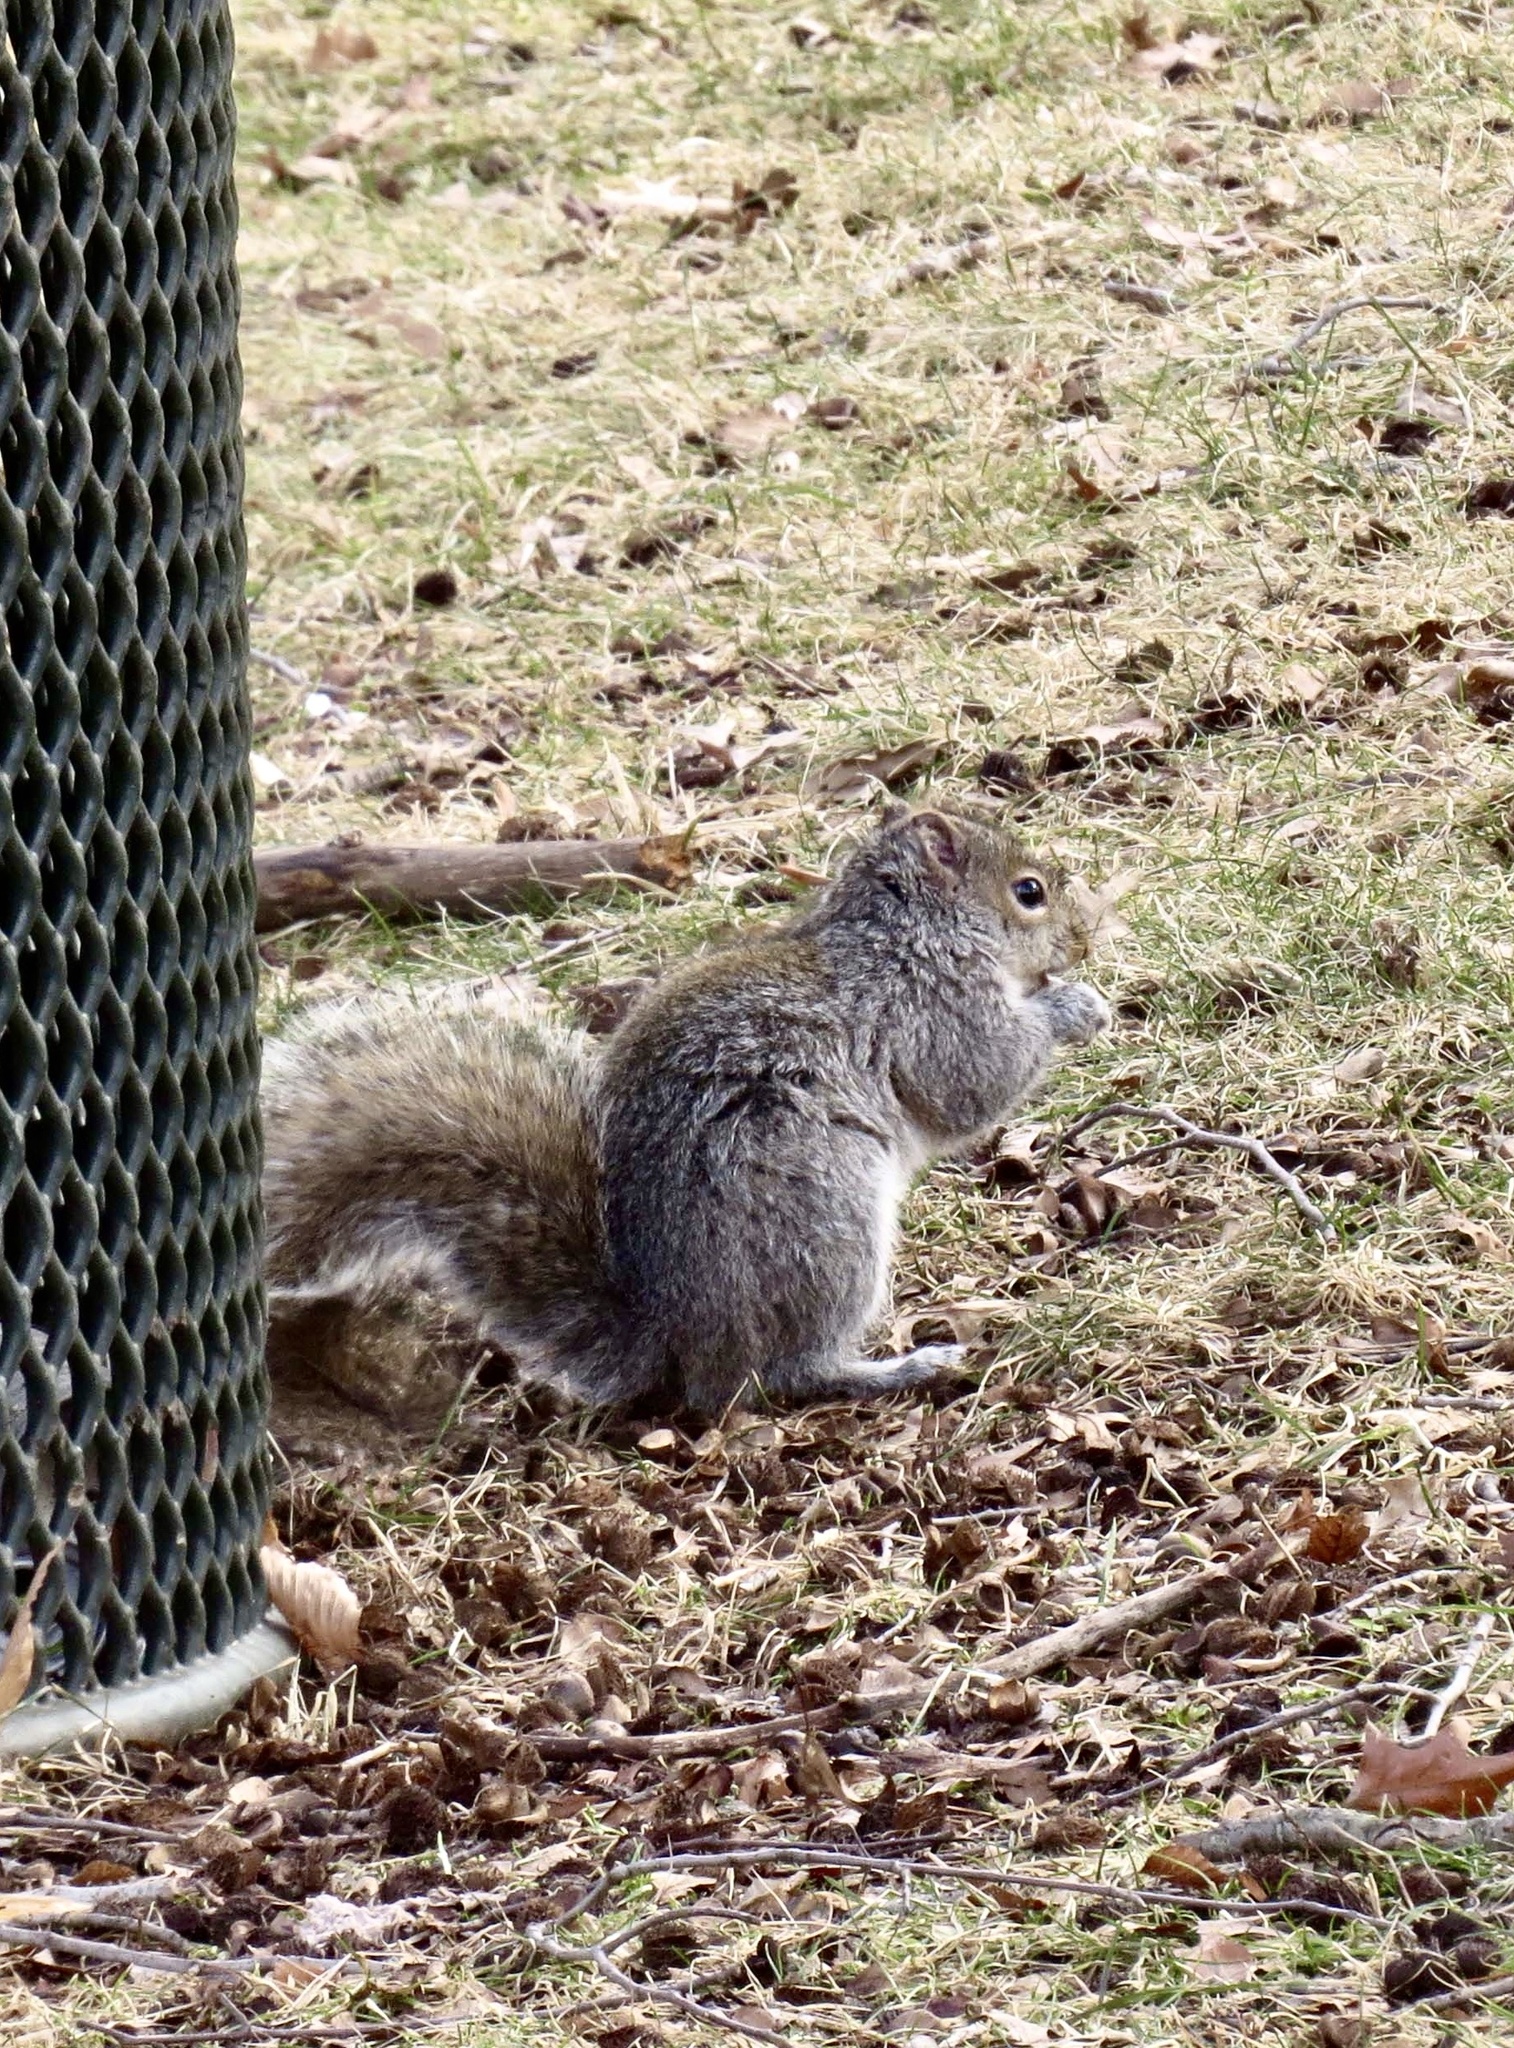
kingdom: Animalia
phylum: Chordata
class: Mammalia
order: Rodentia
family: Sciuridae
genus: Sciurus
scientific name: Sciurus carolinensis
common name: Eastern gray squirrel
